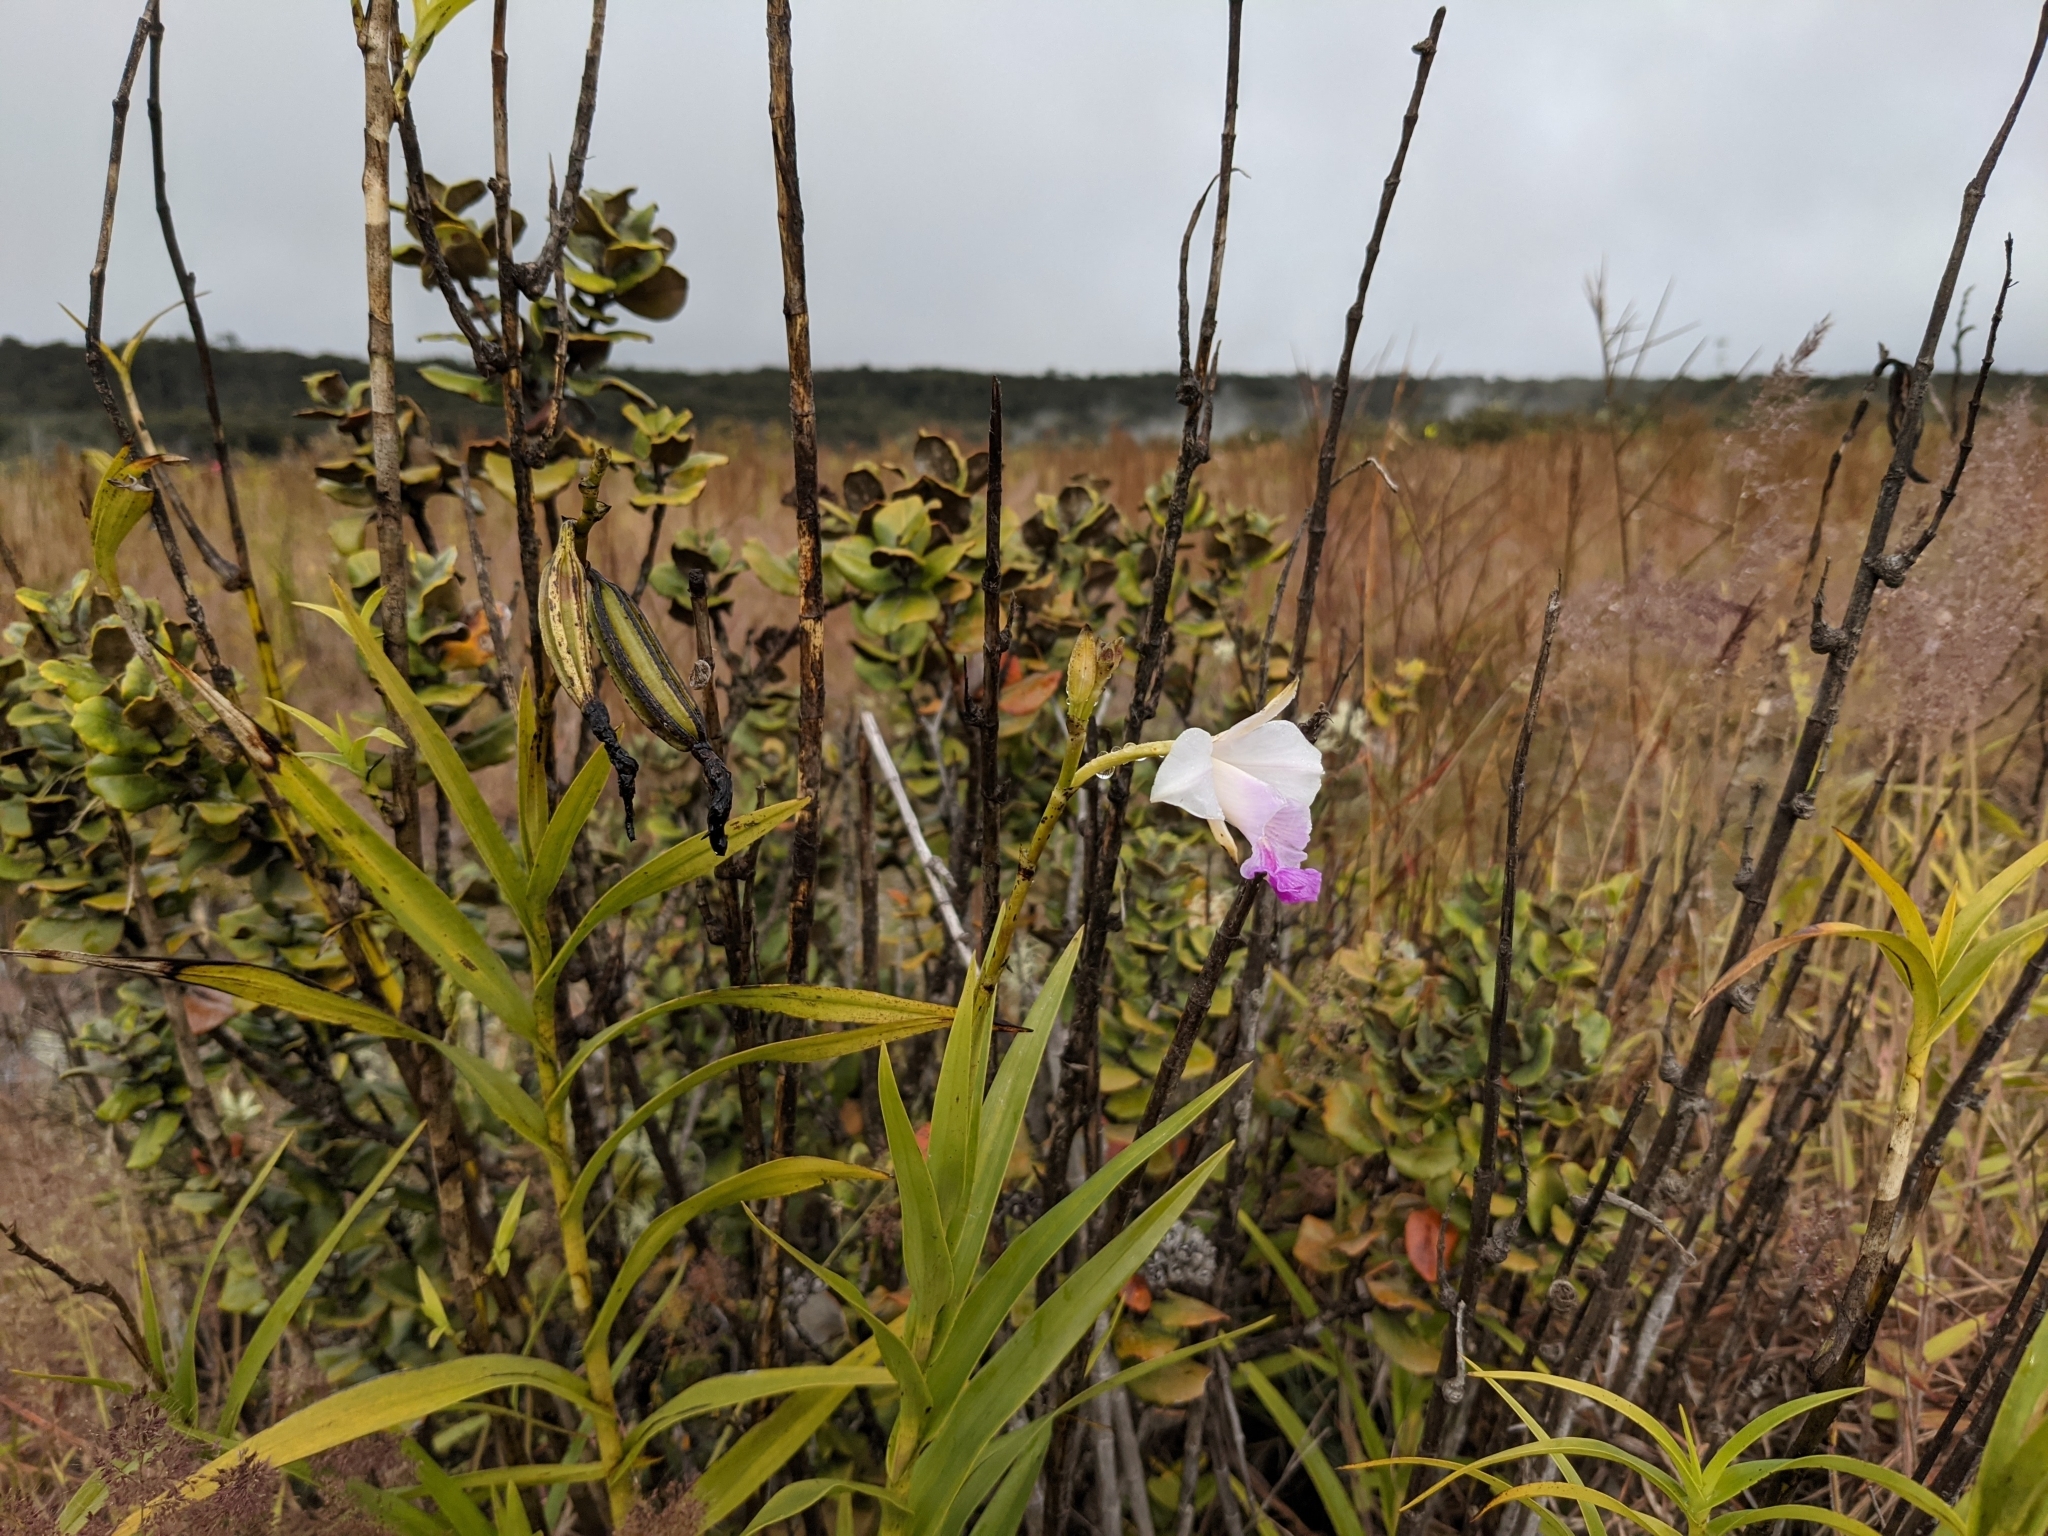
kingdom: Plantae
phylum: Tracheophyta
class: Liliopsida
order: Asparagales
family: Orchidaceae
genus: Arundina
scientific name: Arundina graminifolia
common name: Bamboo orchid
